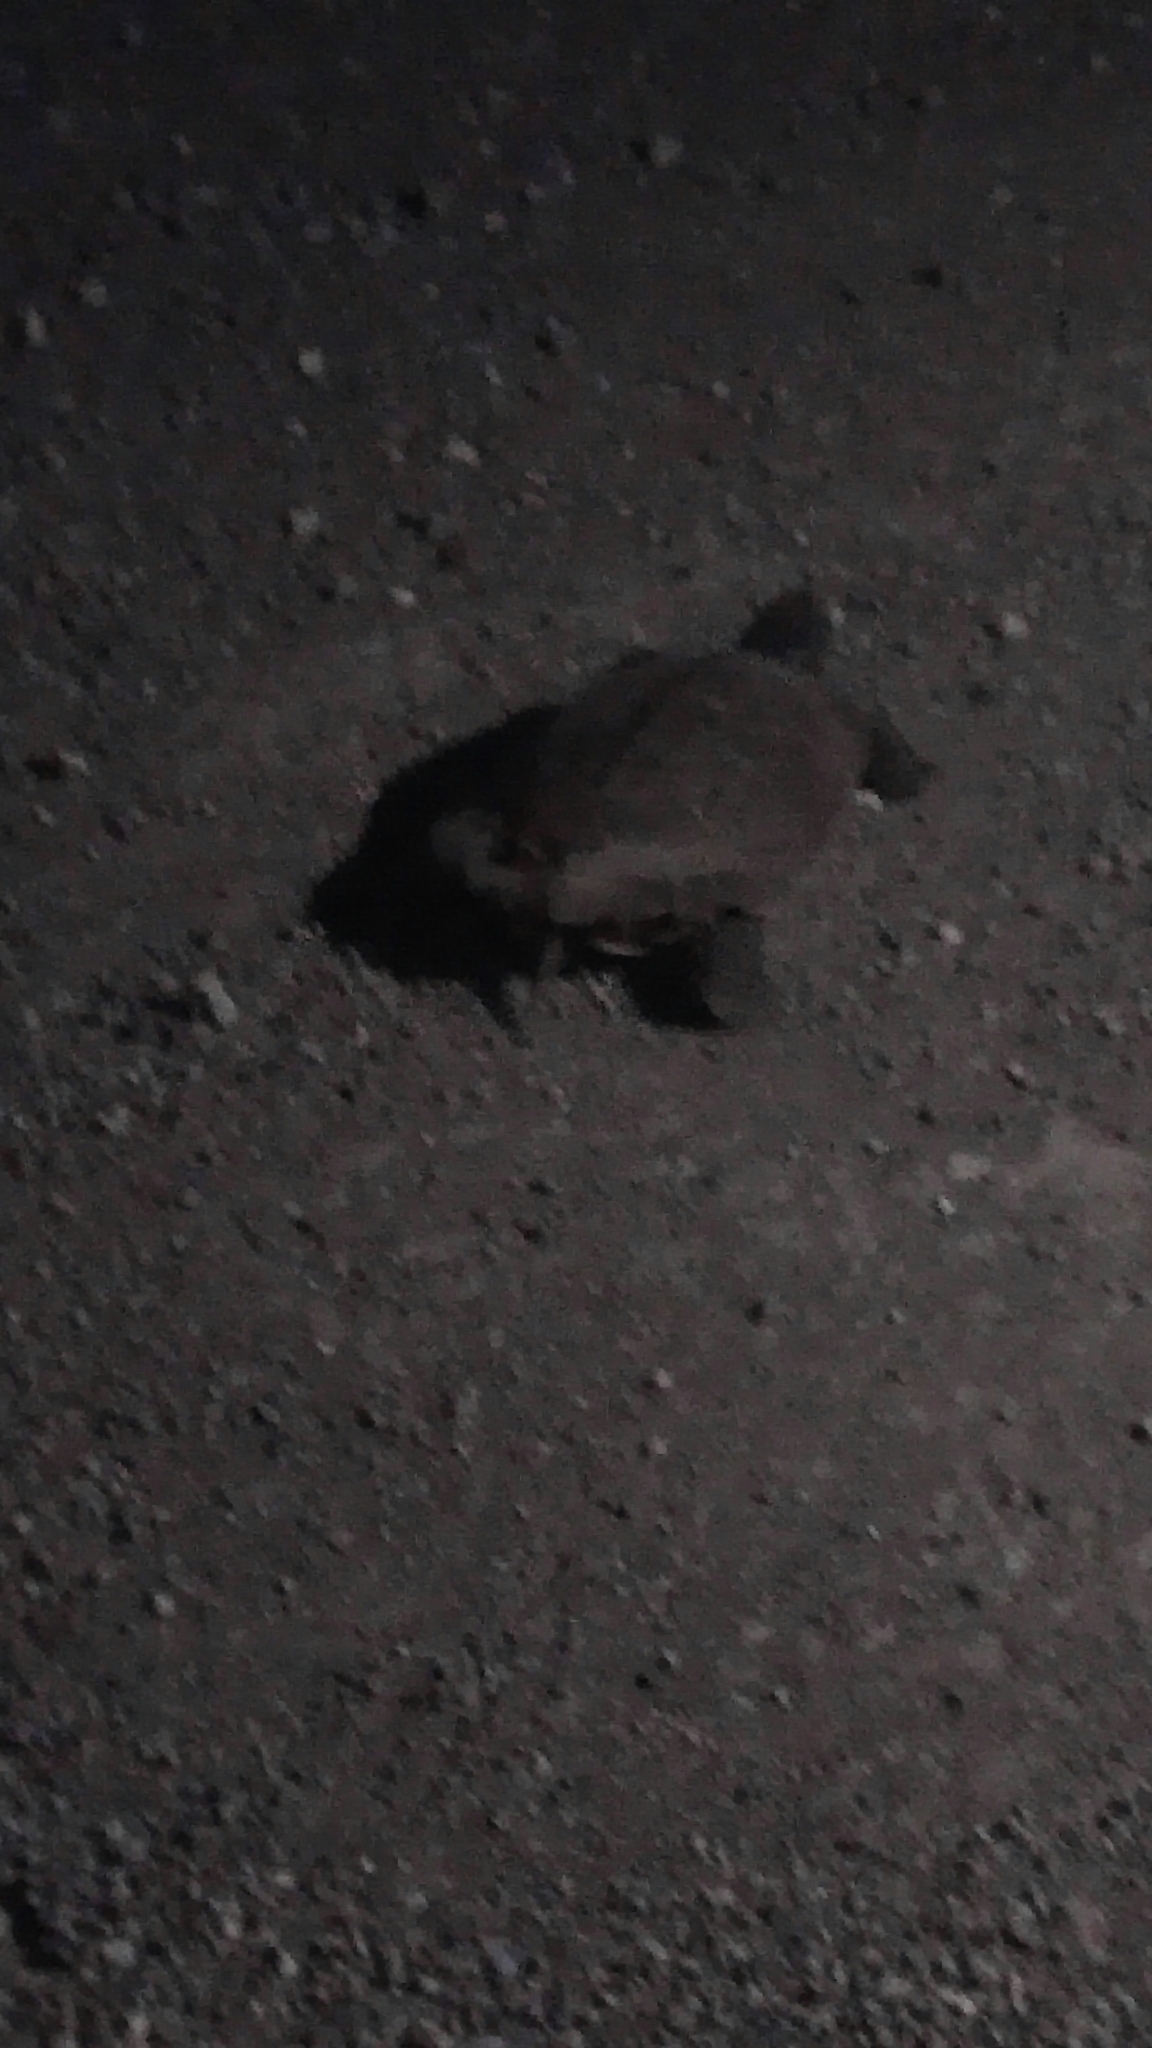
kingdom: Animalia
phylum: Chordata
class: Testudines
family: Emydidae
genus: Graptemys
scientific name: Graptemys geographica
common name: Common map turtle
